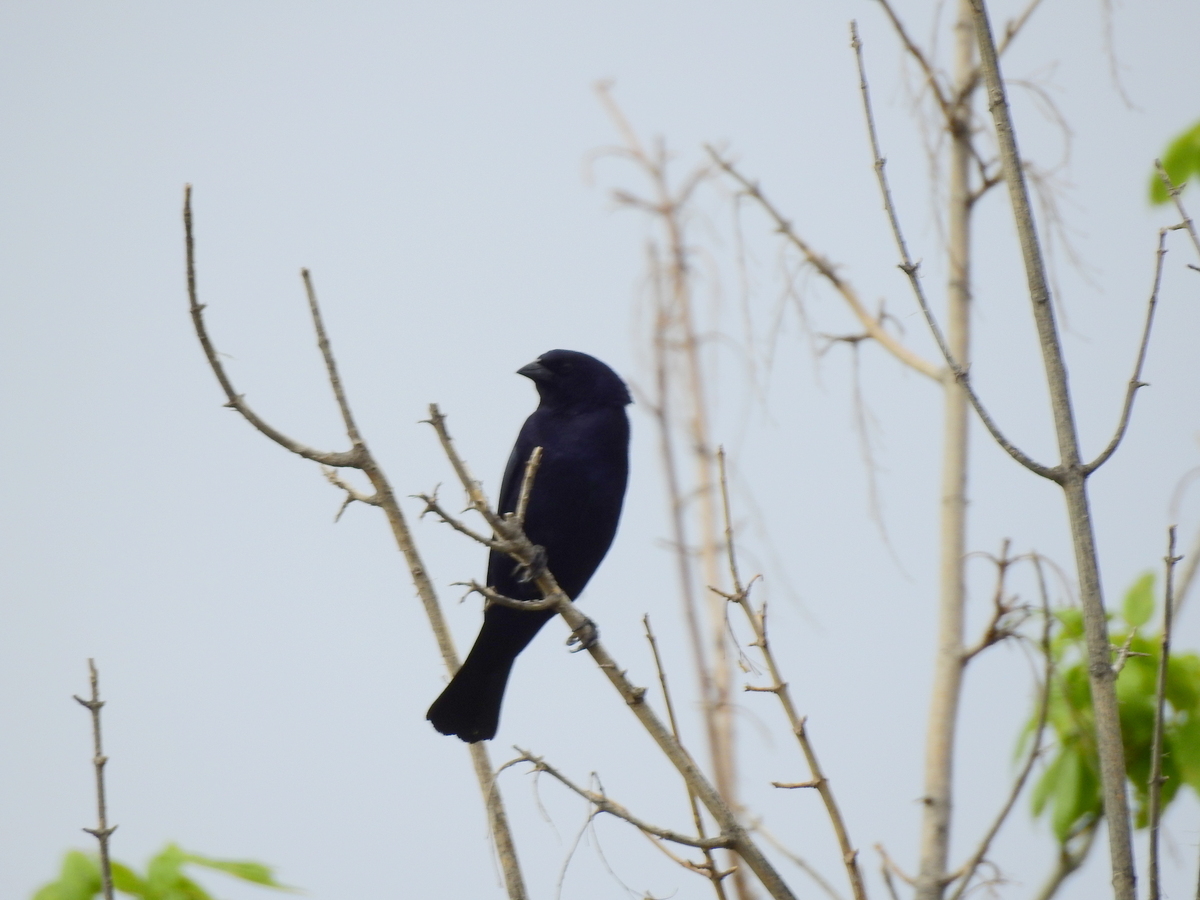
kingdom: Animalia
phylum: Chordata
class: Aves
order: Passeriformes
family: Icteridae
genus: Molothrus
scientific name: Molothrus rufoaxillaris
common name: Screaming cowbird
